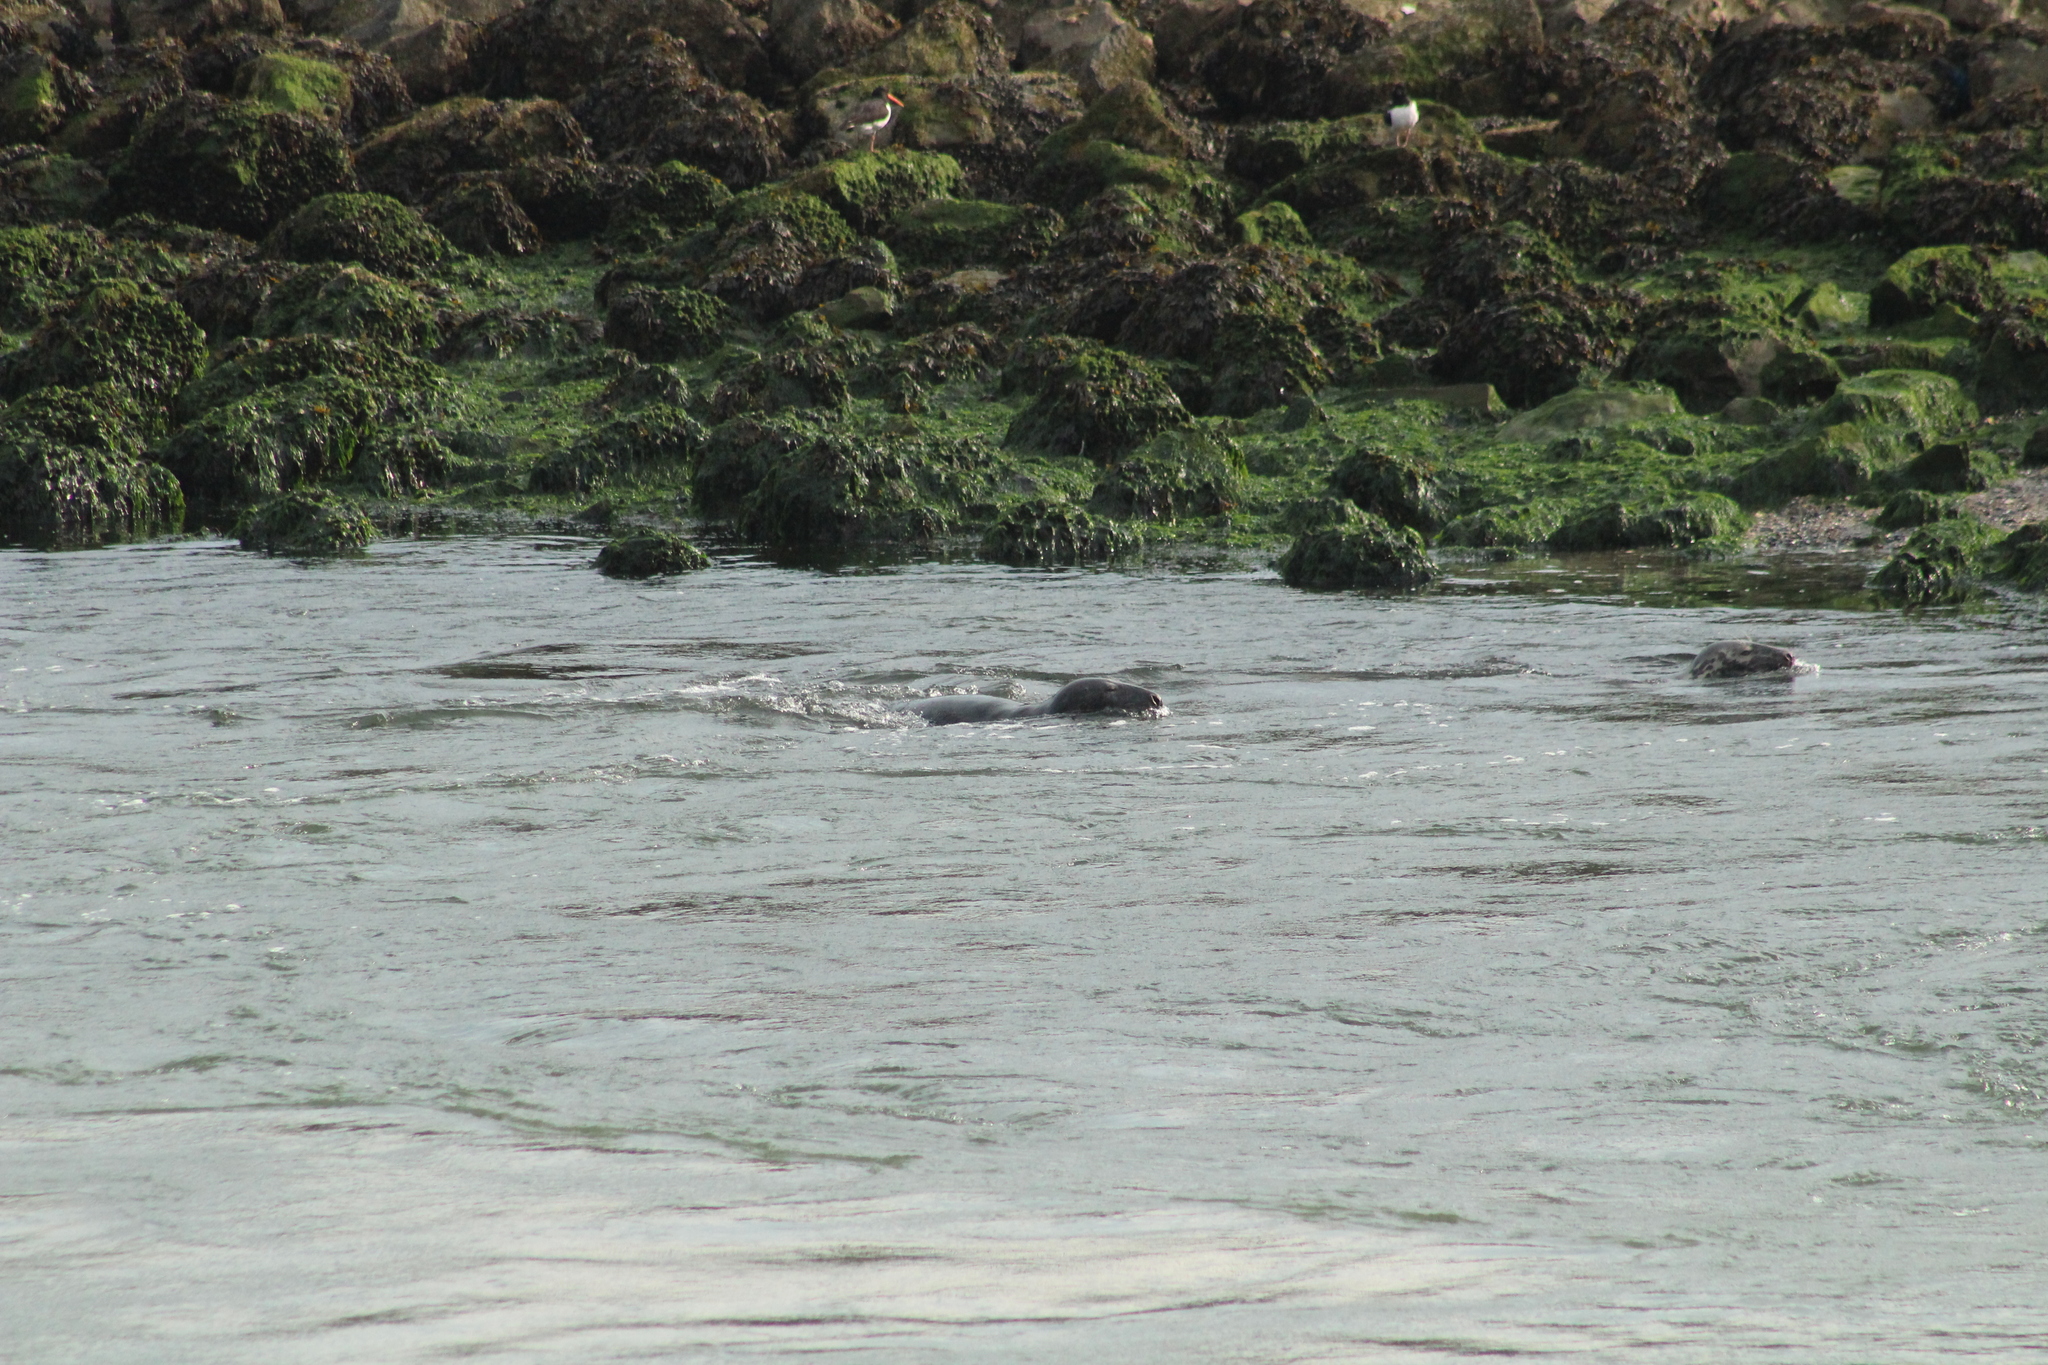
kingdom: Animalia
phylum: Chordata
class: Mammalia
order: Carnivora
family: Phocidae
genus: Halichoerus
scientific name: Halichoerus grypus
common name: Grey seal
